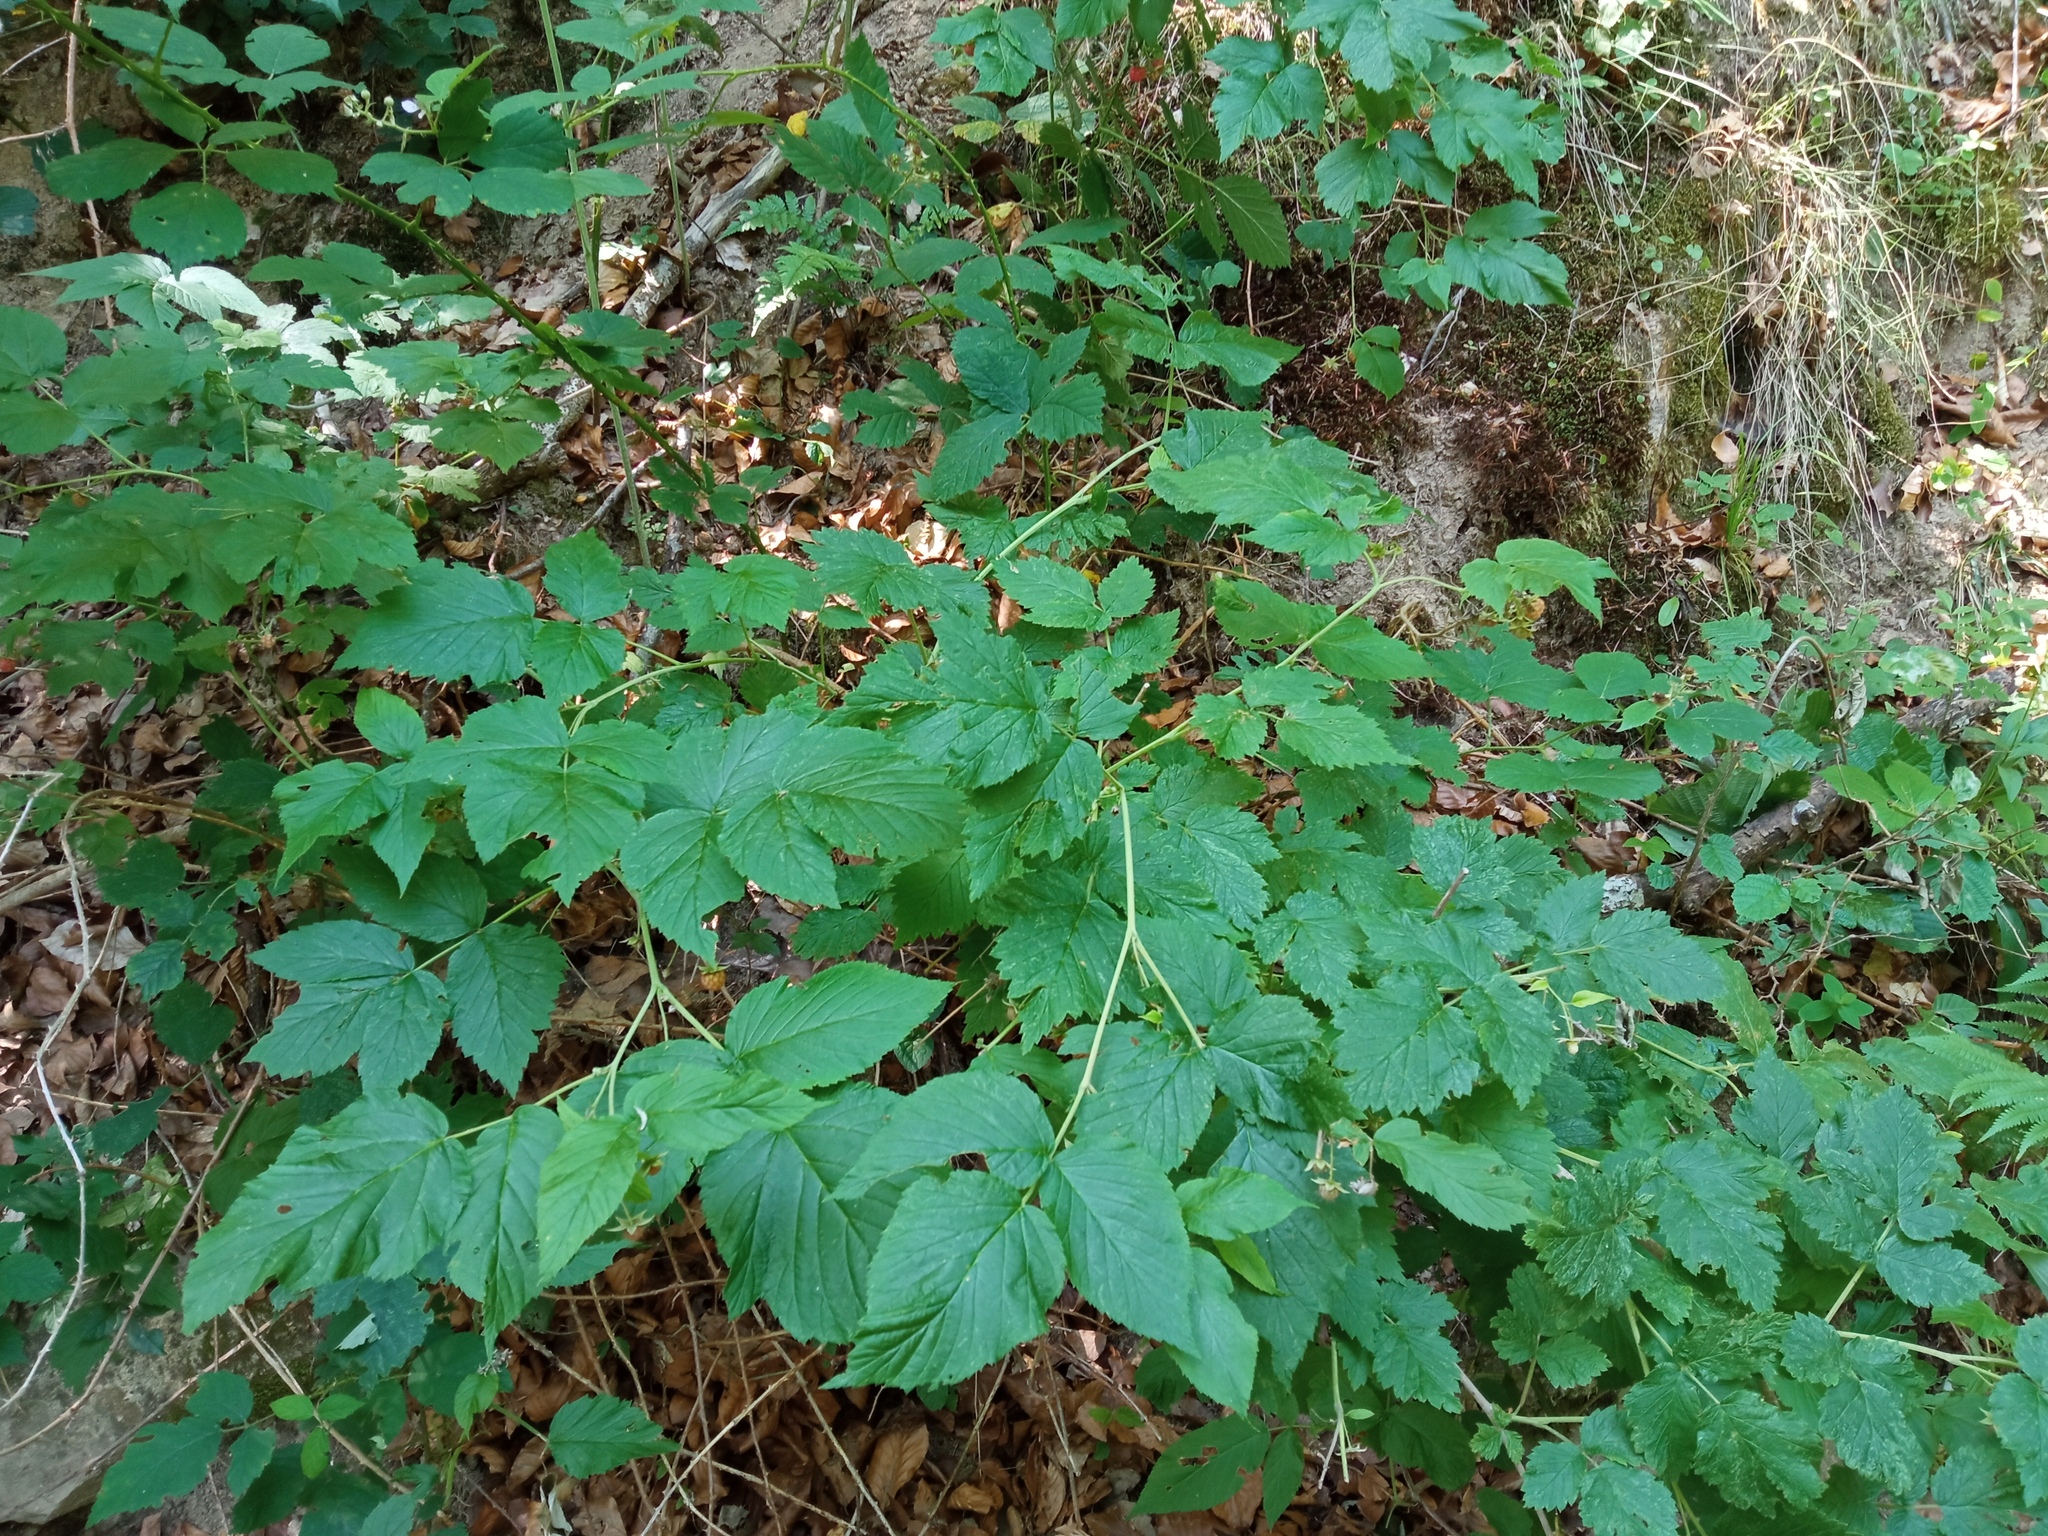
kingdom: Plantae
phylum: Tracheophyta
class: Magnoliopsida
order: Rosales
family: Rosaceae
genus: Rubus
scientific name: Rubus idaeus
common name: Raspberry
